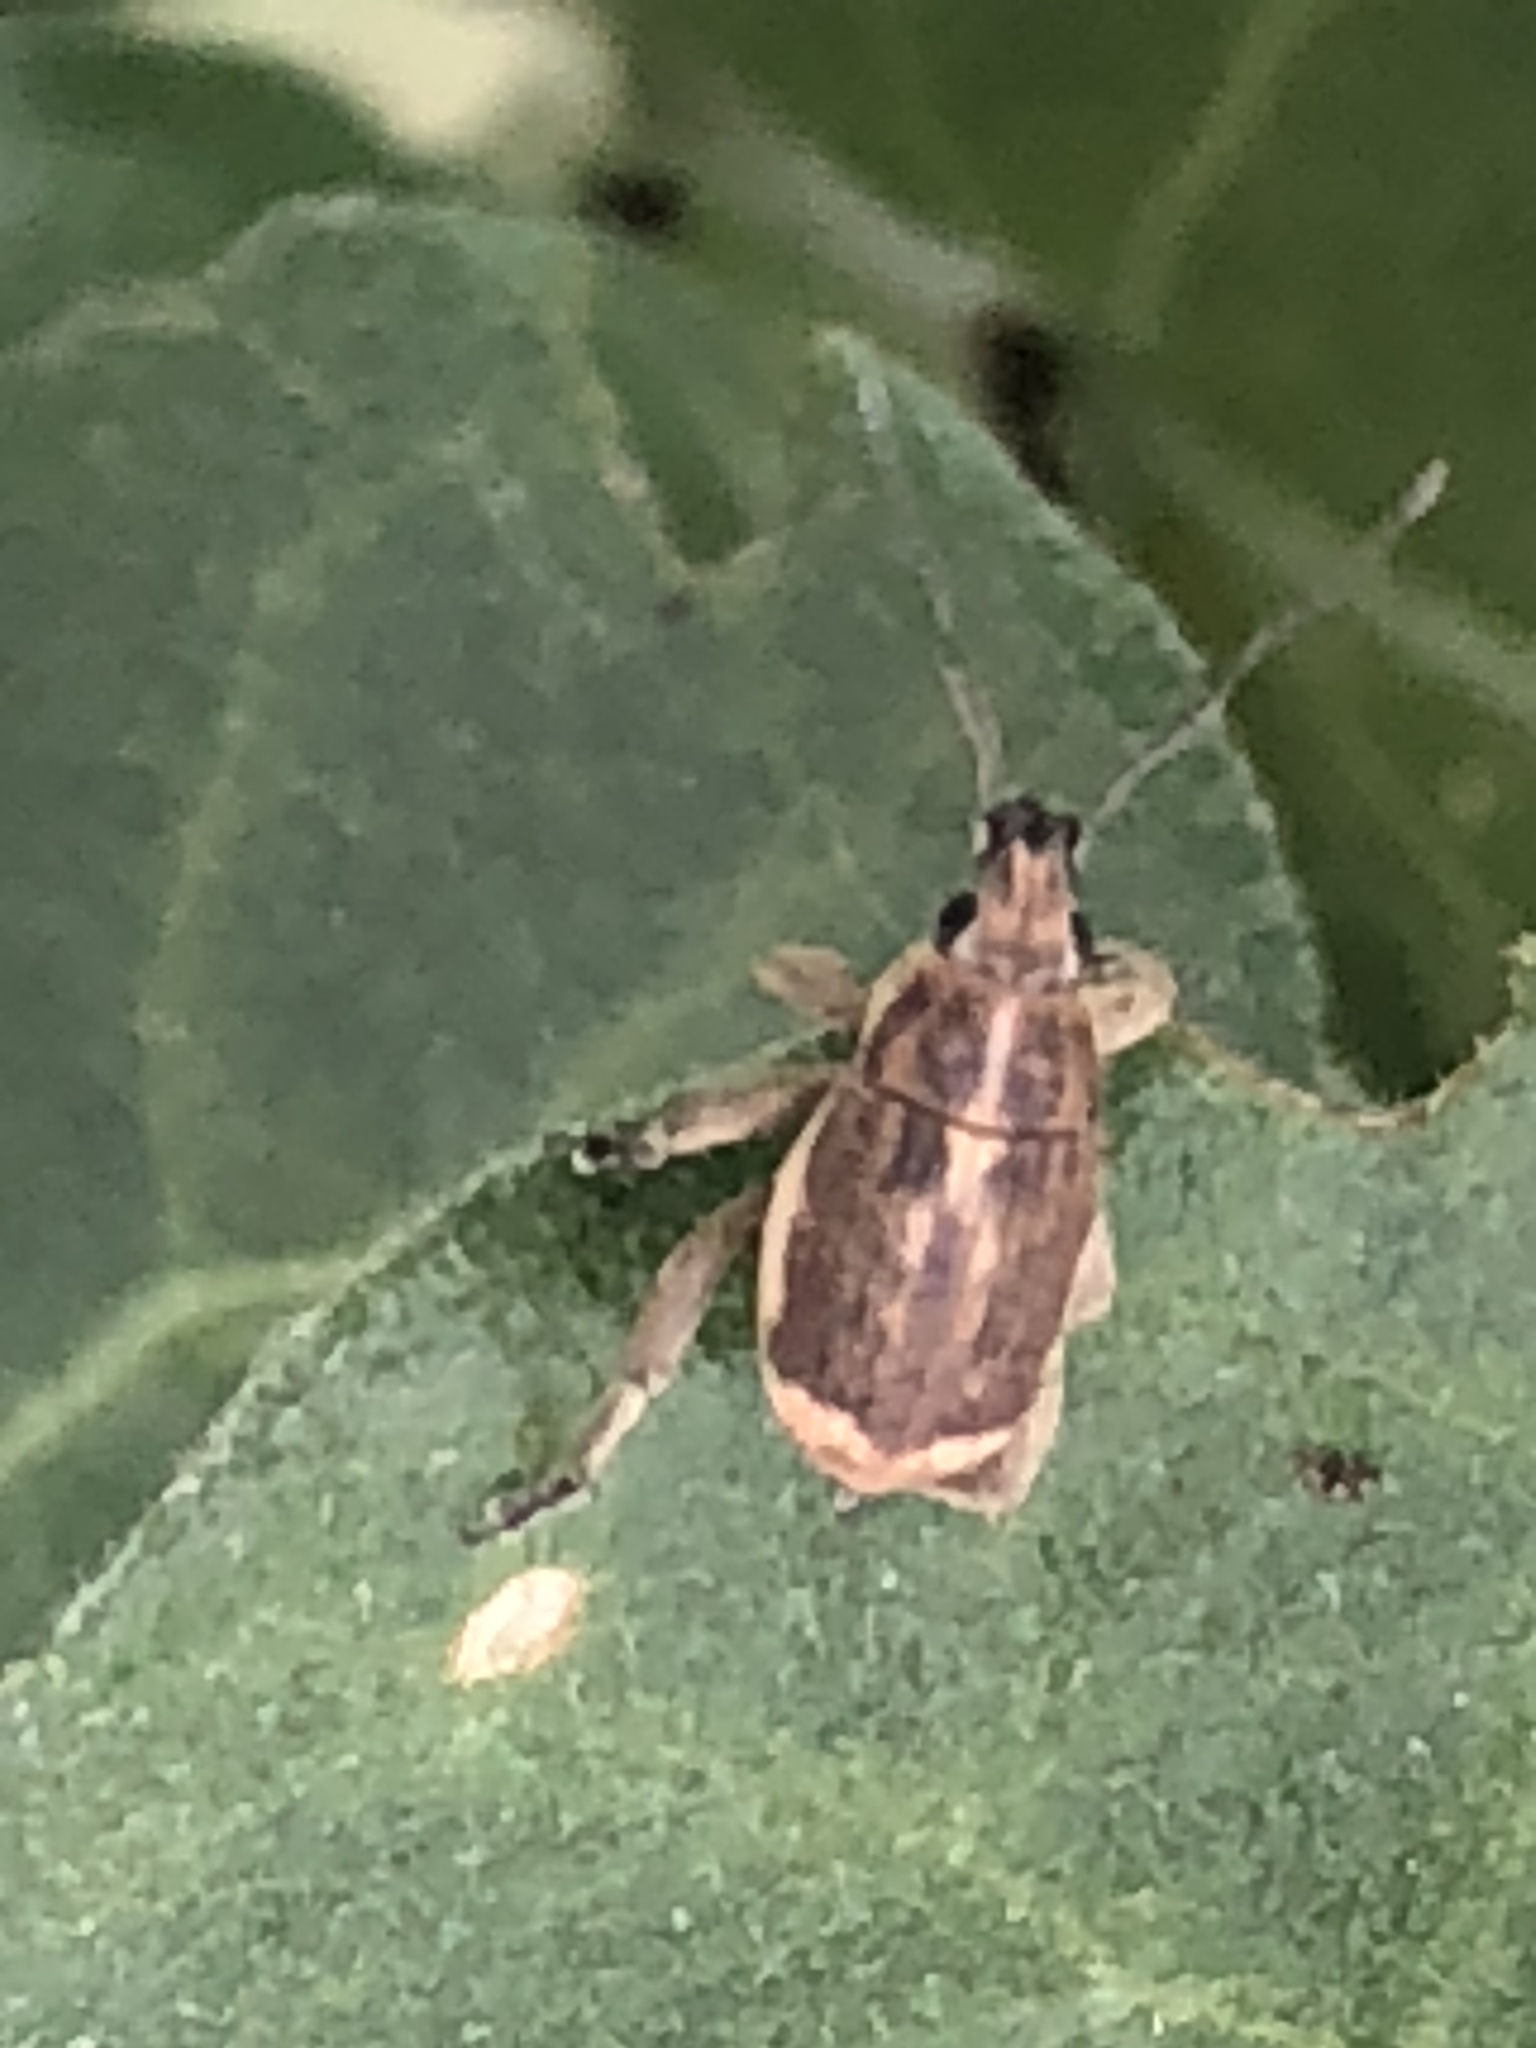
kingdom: Animalia
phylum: Arthropoda
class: Insecta
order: Coleoptera
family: Curculionidae
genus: Sciobius
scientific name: Sciobius pullus
